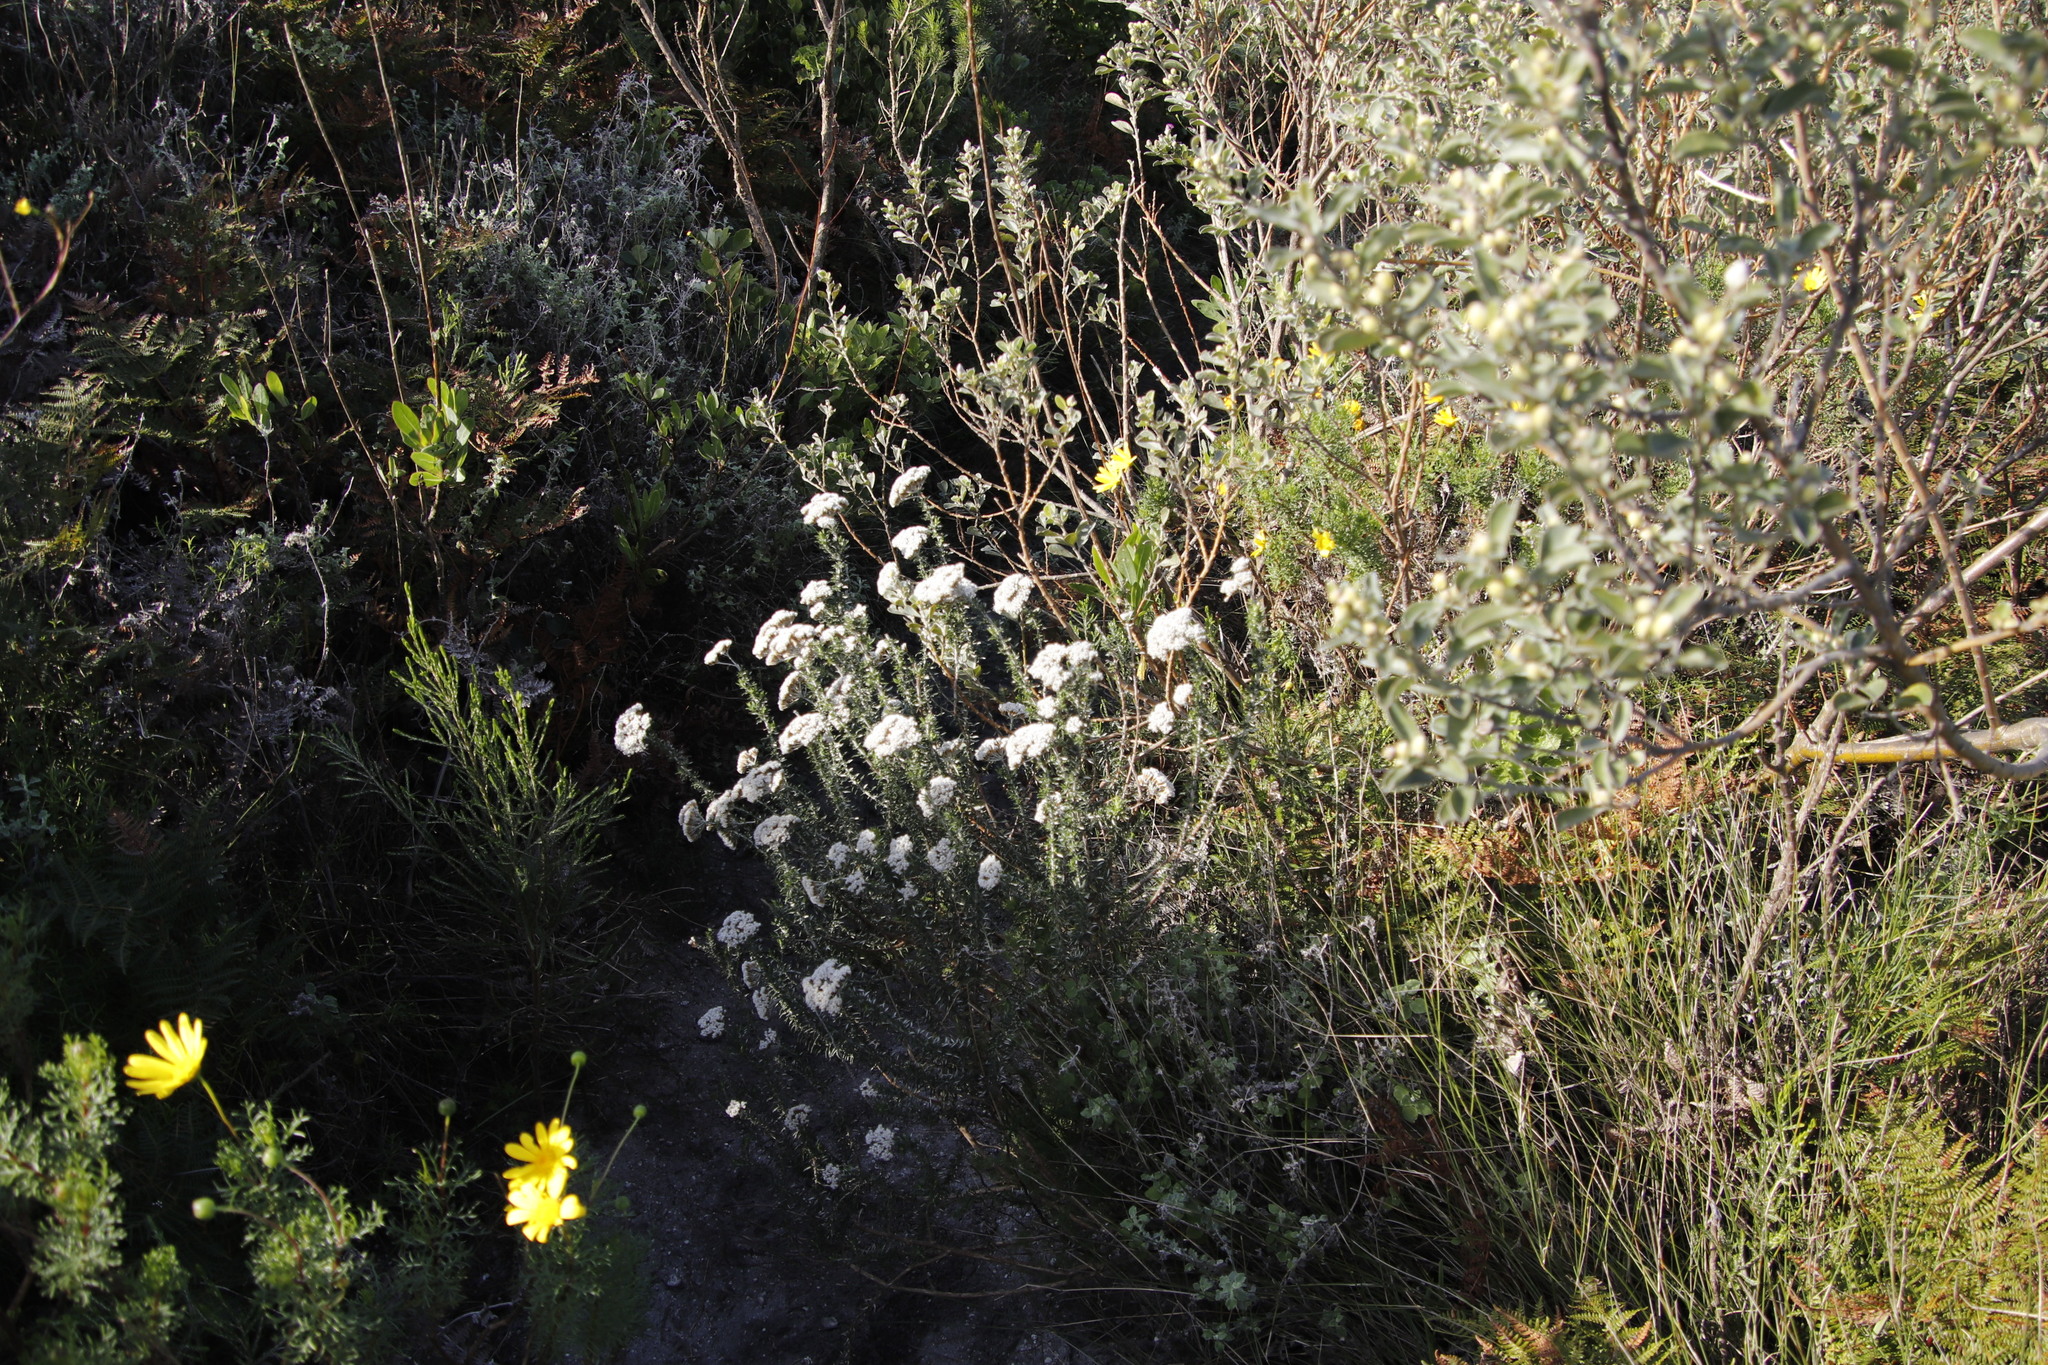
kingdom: Plantae
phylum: Tracheophyta
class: Magnoliopsida
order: Asterales
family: Asteraceae
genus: Metalasia
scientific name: Metalasia densa
